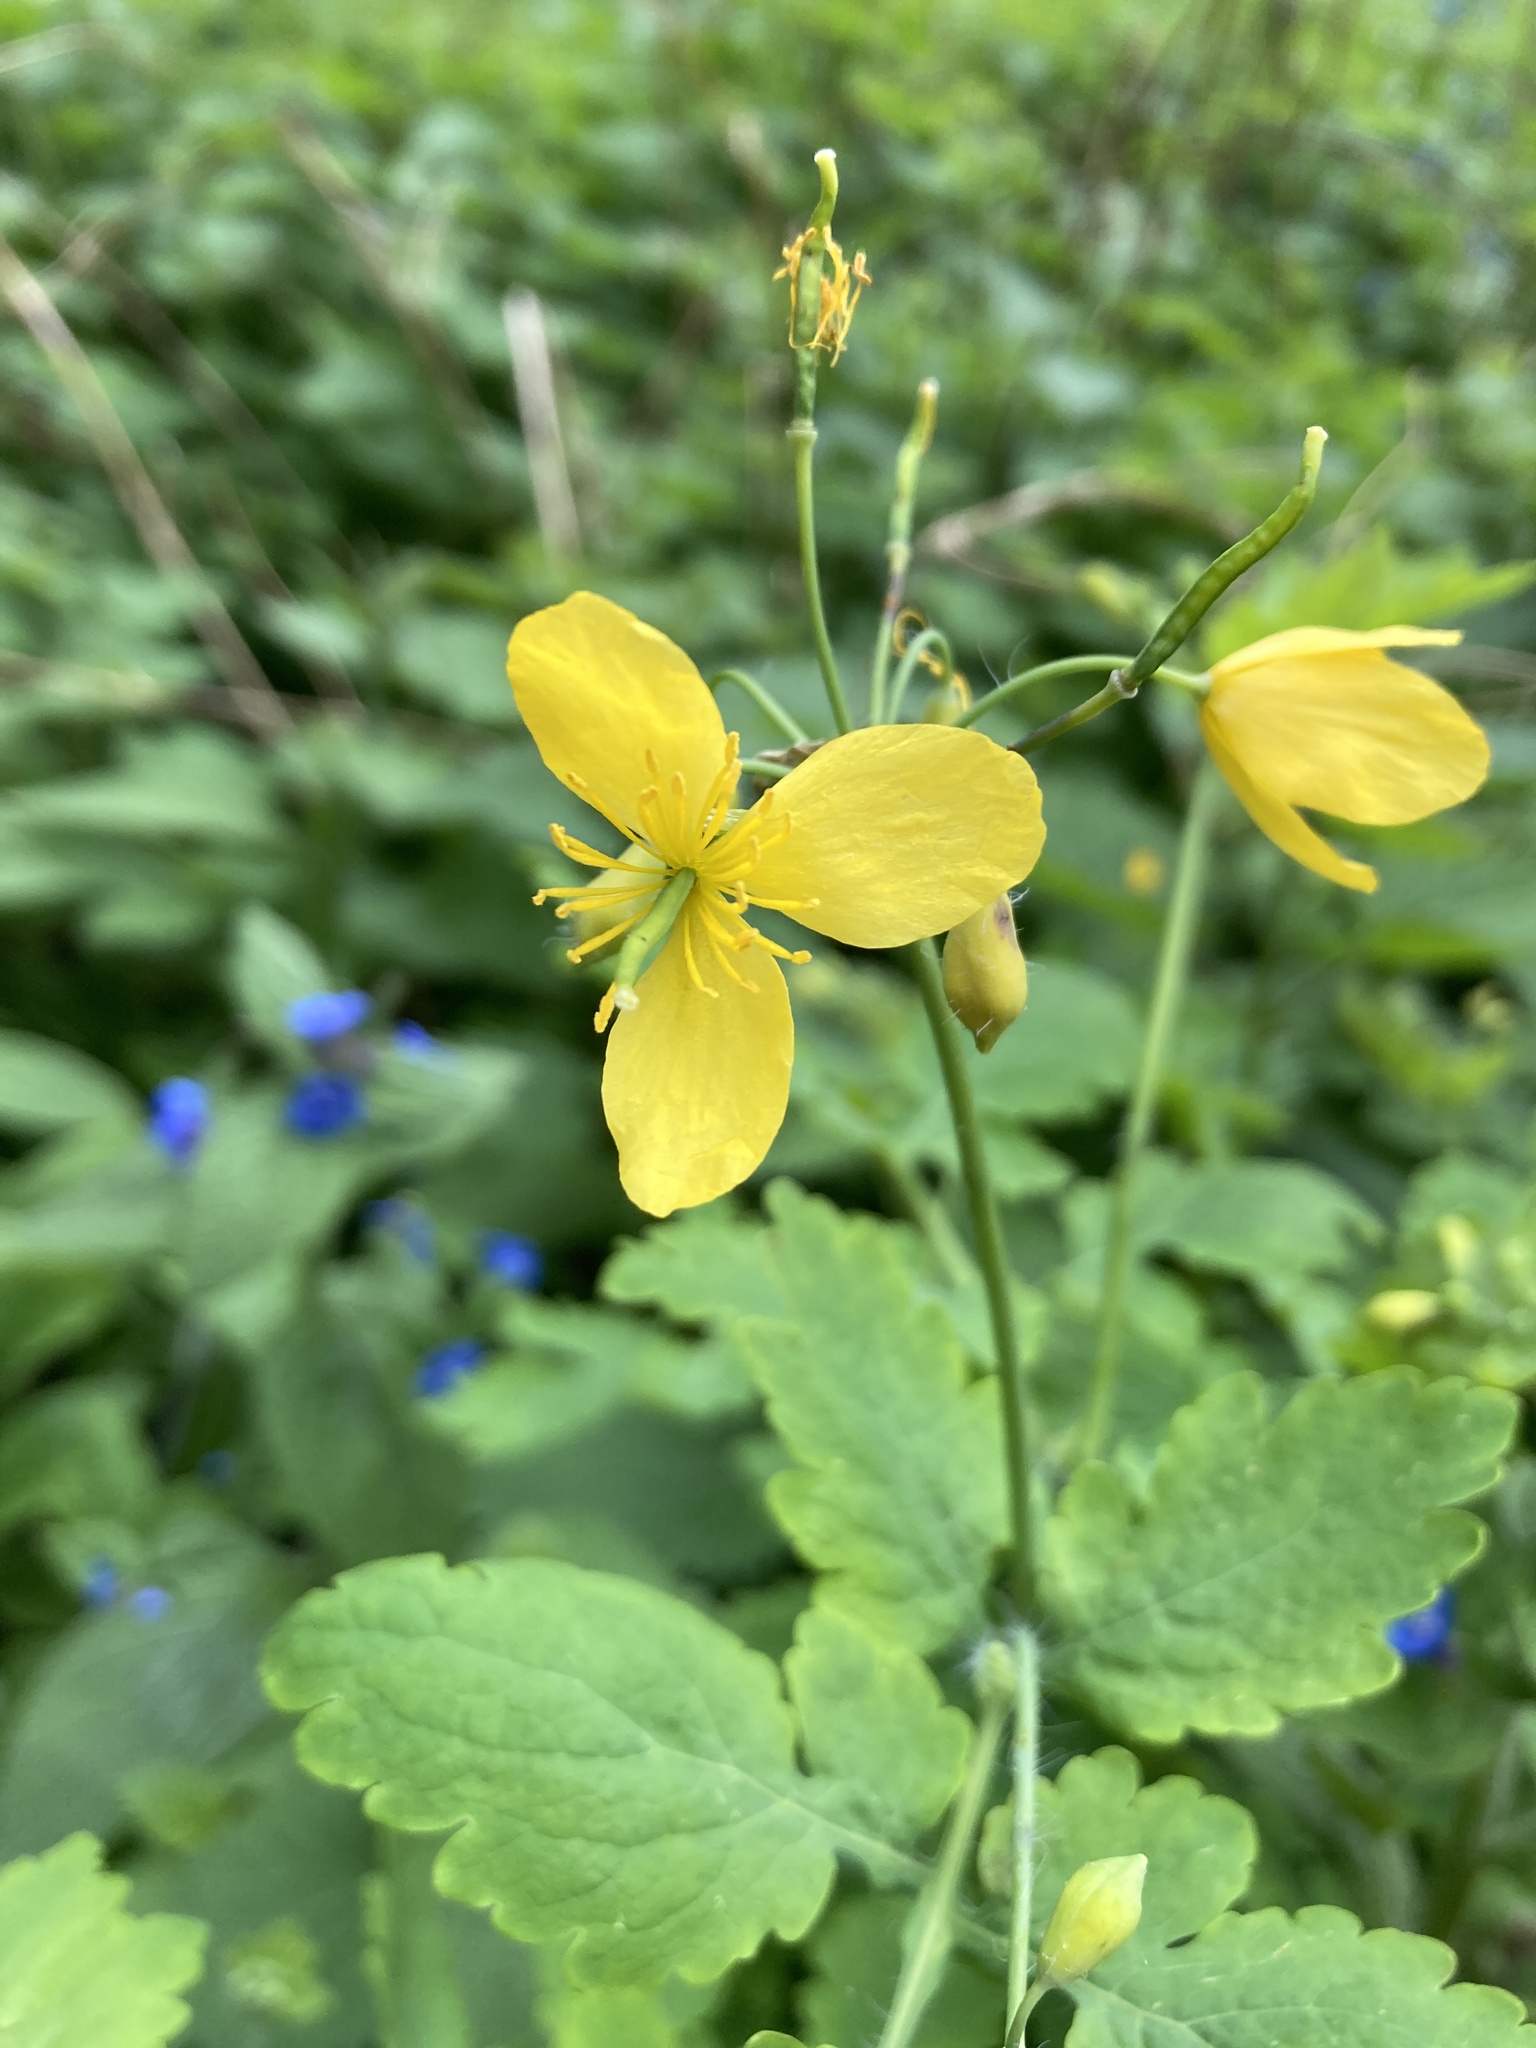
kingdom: Plantae
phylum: Tracheophyta
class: Magnoliopsida
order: Ranunculales
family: Papaveraceae
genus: Chelidonium
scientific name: Chelidonium majus
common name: Greater celandine
